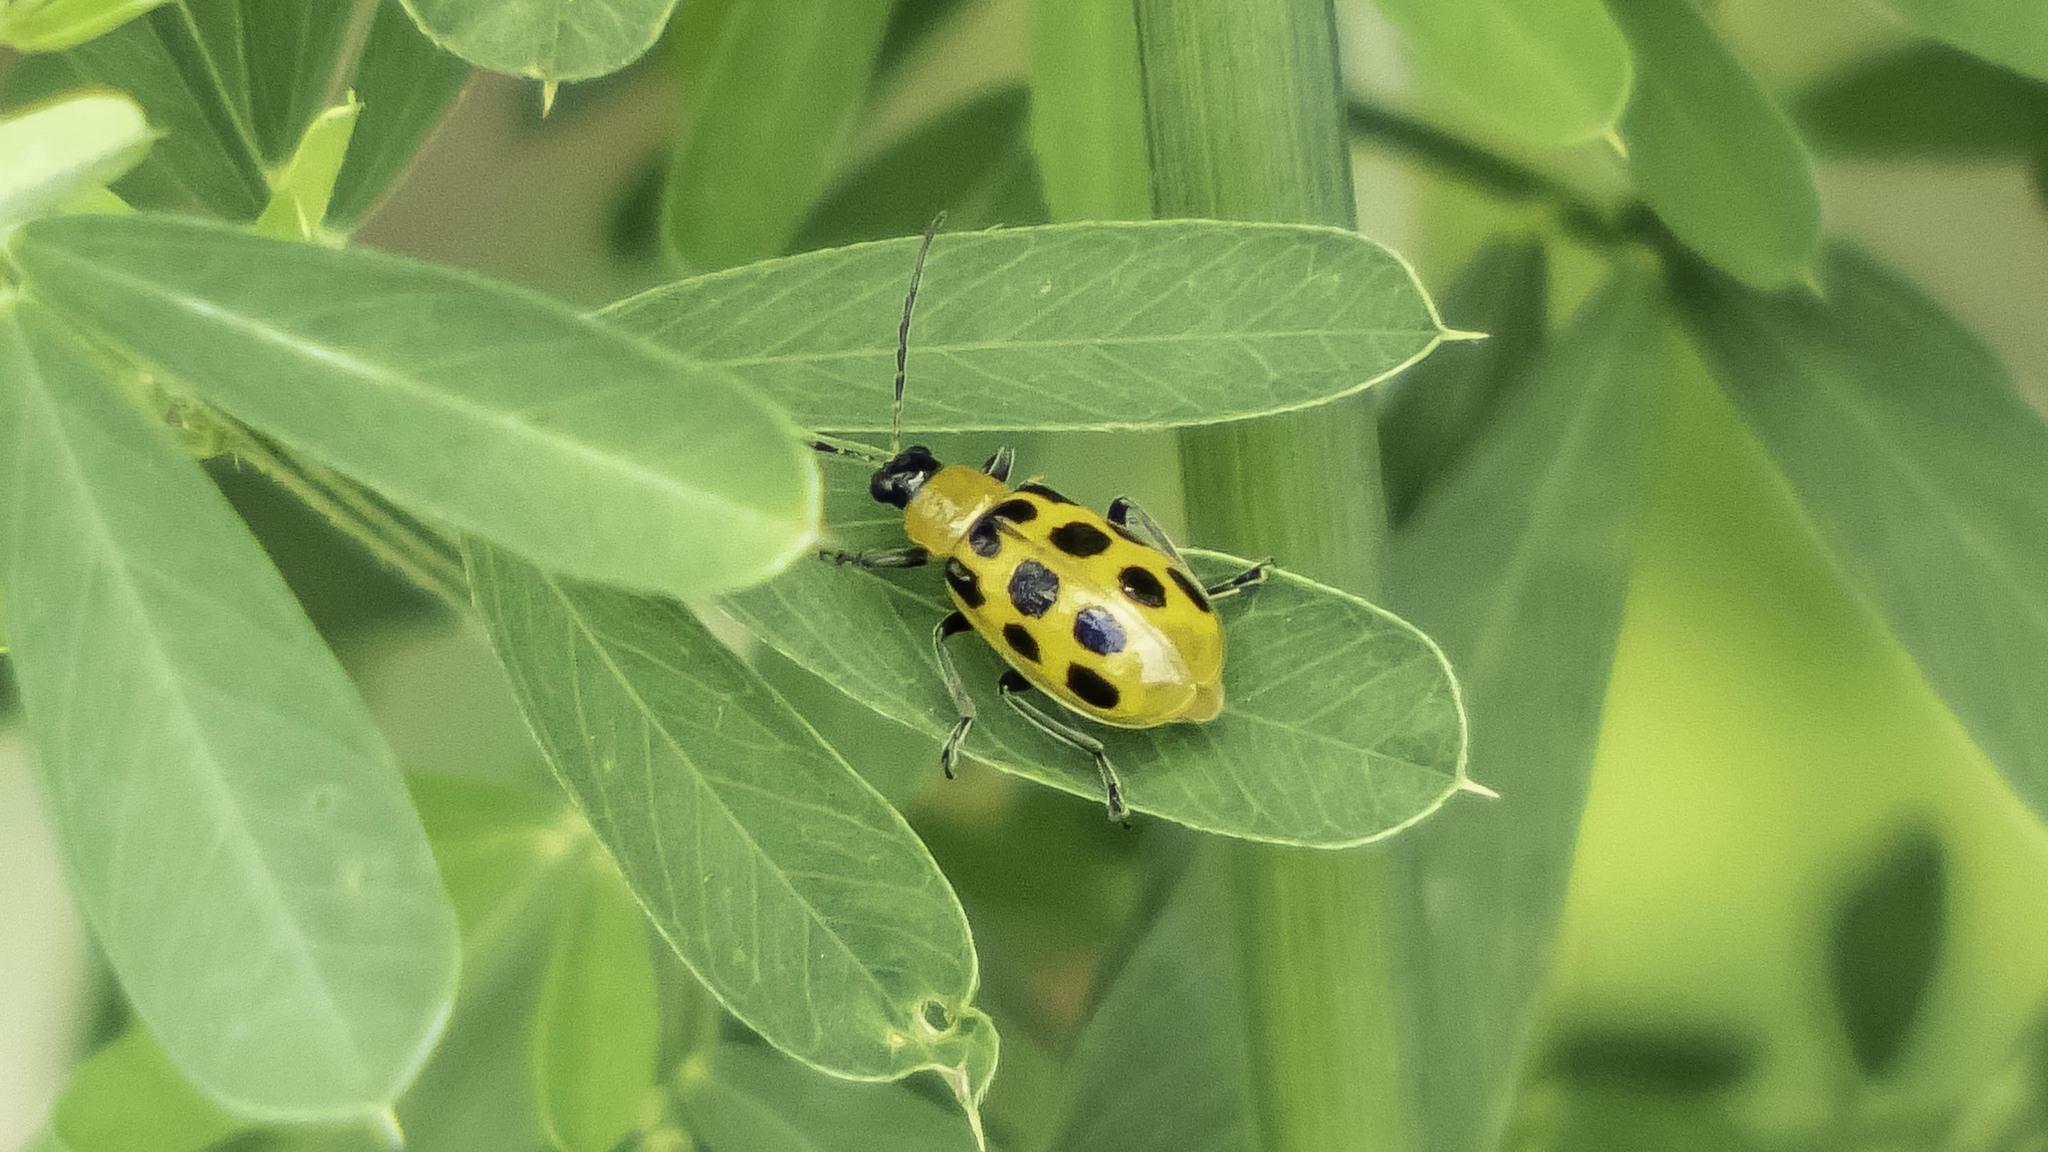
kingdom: Animalia
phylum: Arthropoda
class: Insecta
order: Coleoptera
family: Chrysomelidae
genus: Diabrotica
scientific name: Diabrotica undecimpunctata
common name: Spotted cucumber beetle
